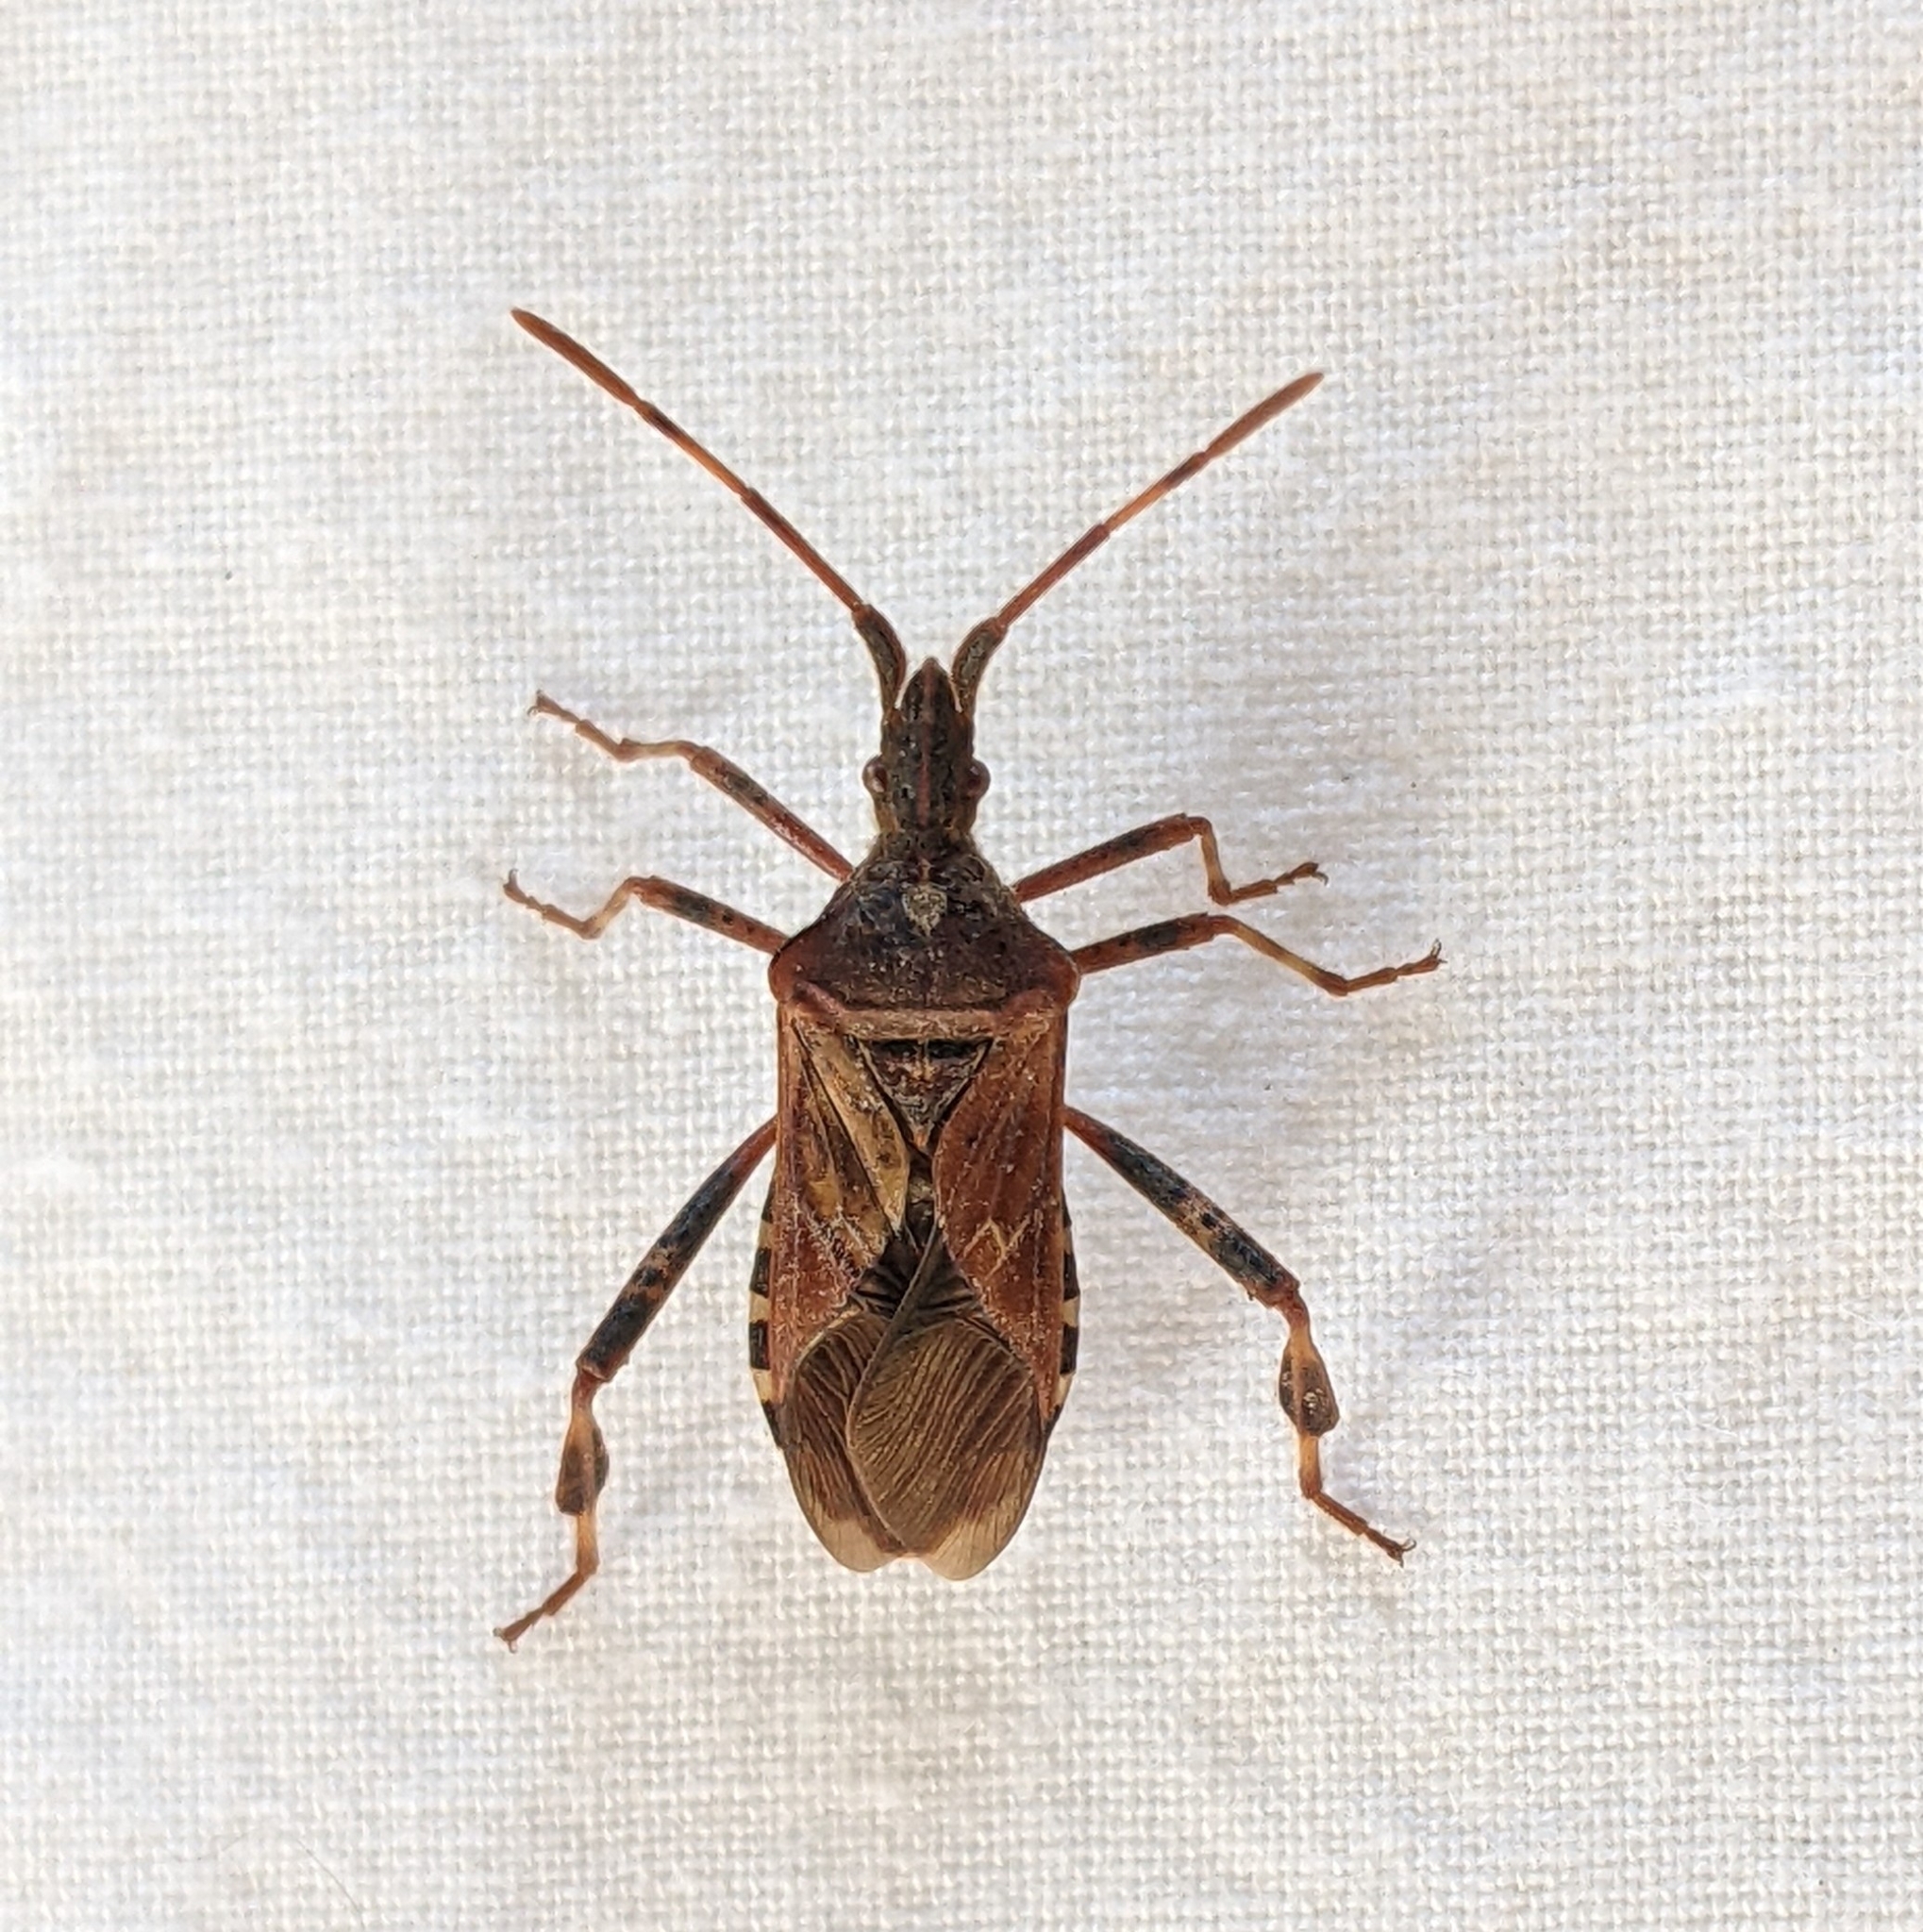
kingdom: Animalia
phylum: Arthropoda
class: Insecta
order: Hemiptera
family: Coreidae
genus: Leptoglossus
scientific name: Leptoglossus occidentalis
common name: Western conifer-seed bug
